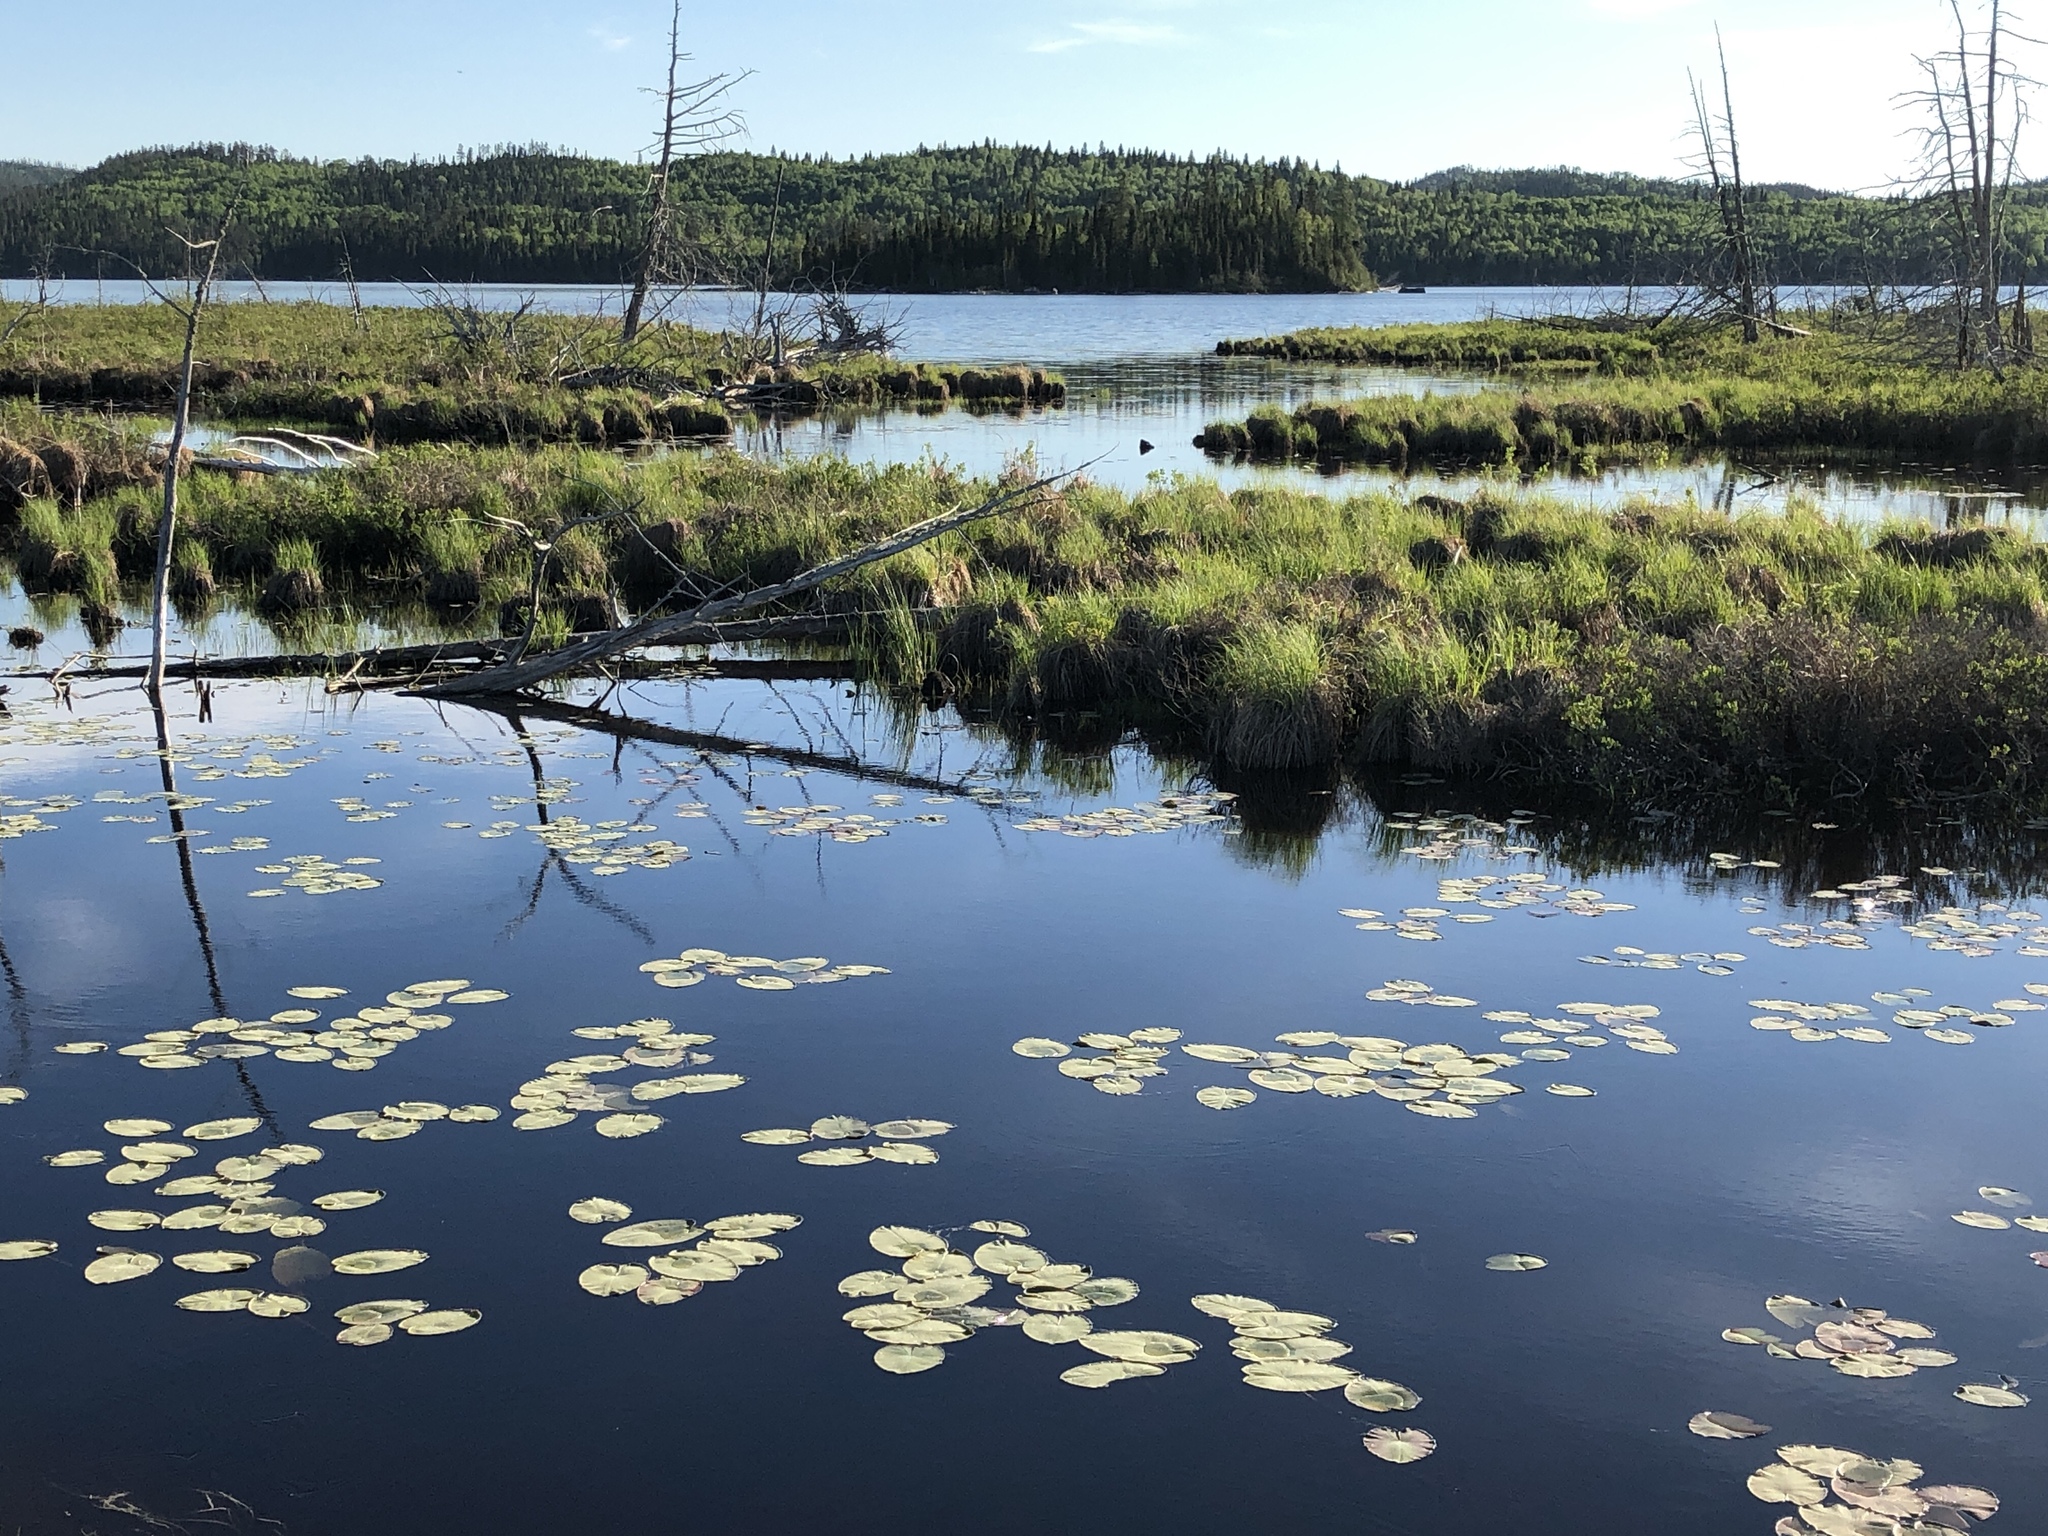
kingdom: Plantae
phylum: Tracheophyta
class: Magnoliopsida
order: Nymphaeales
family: Nymphaeaceae
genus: Nuphar
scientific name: Nuphar variegata
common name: Beaver-root
